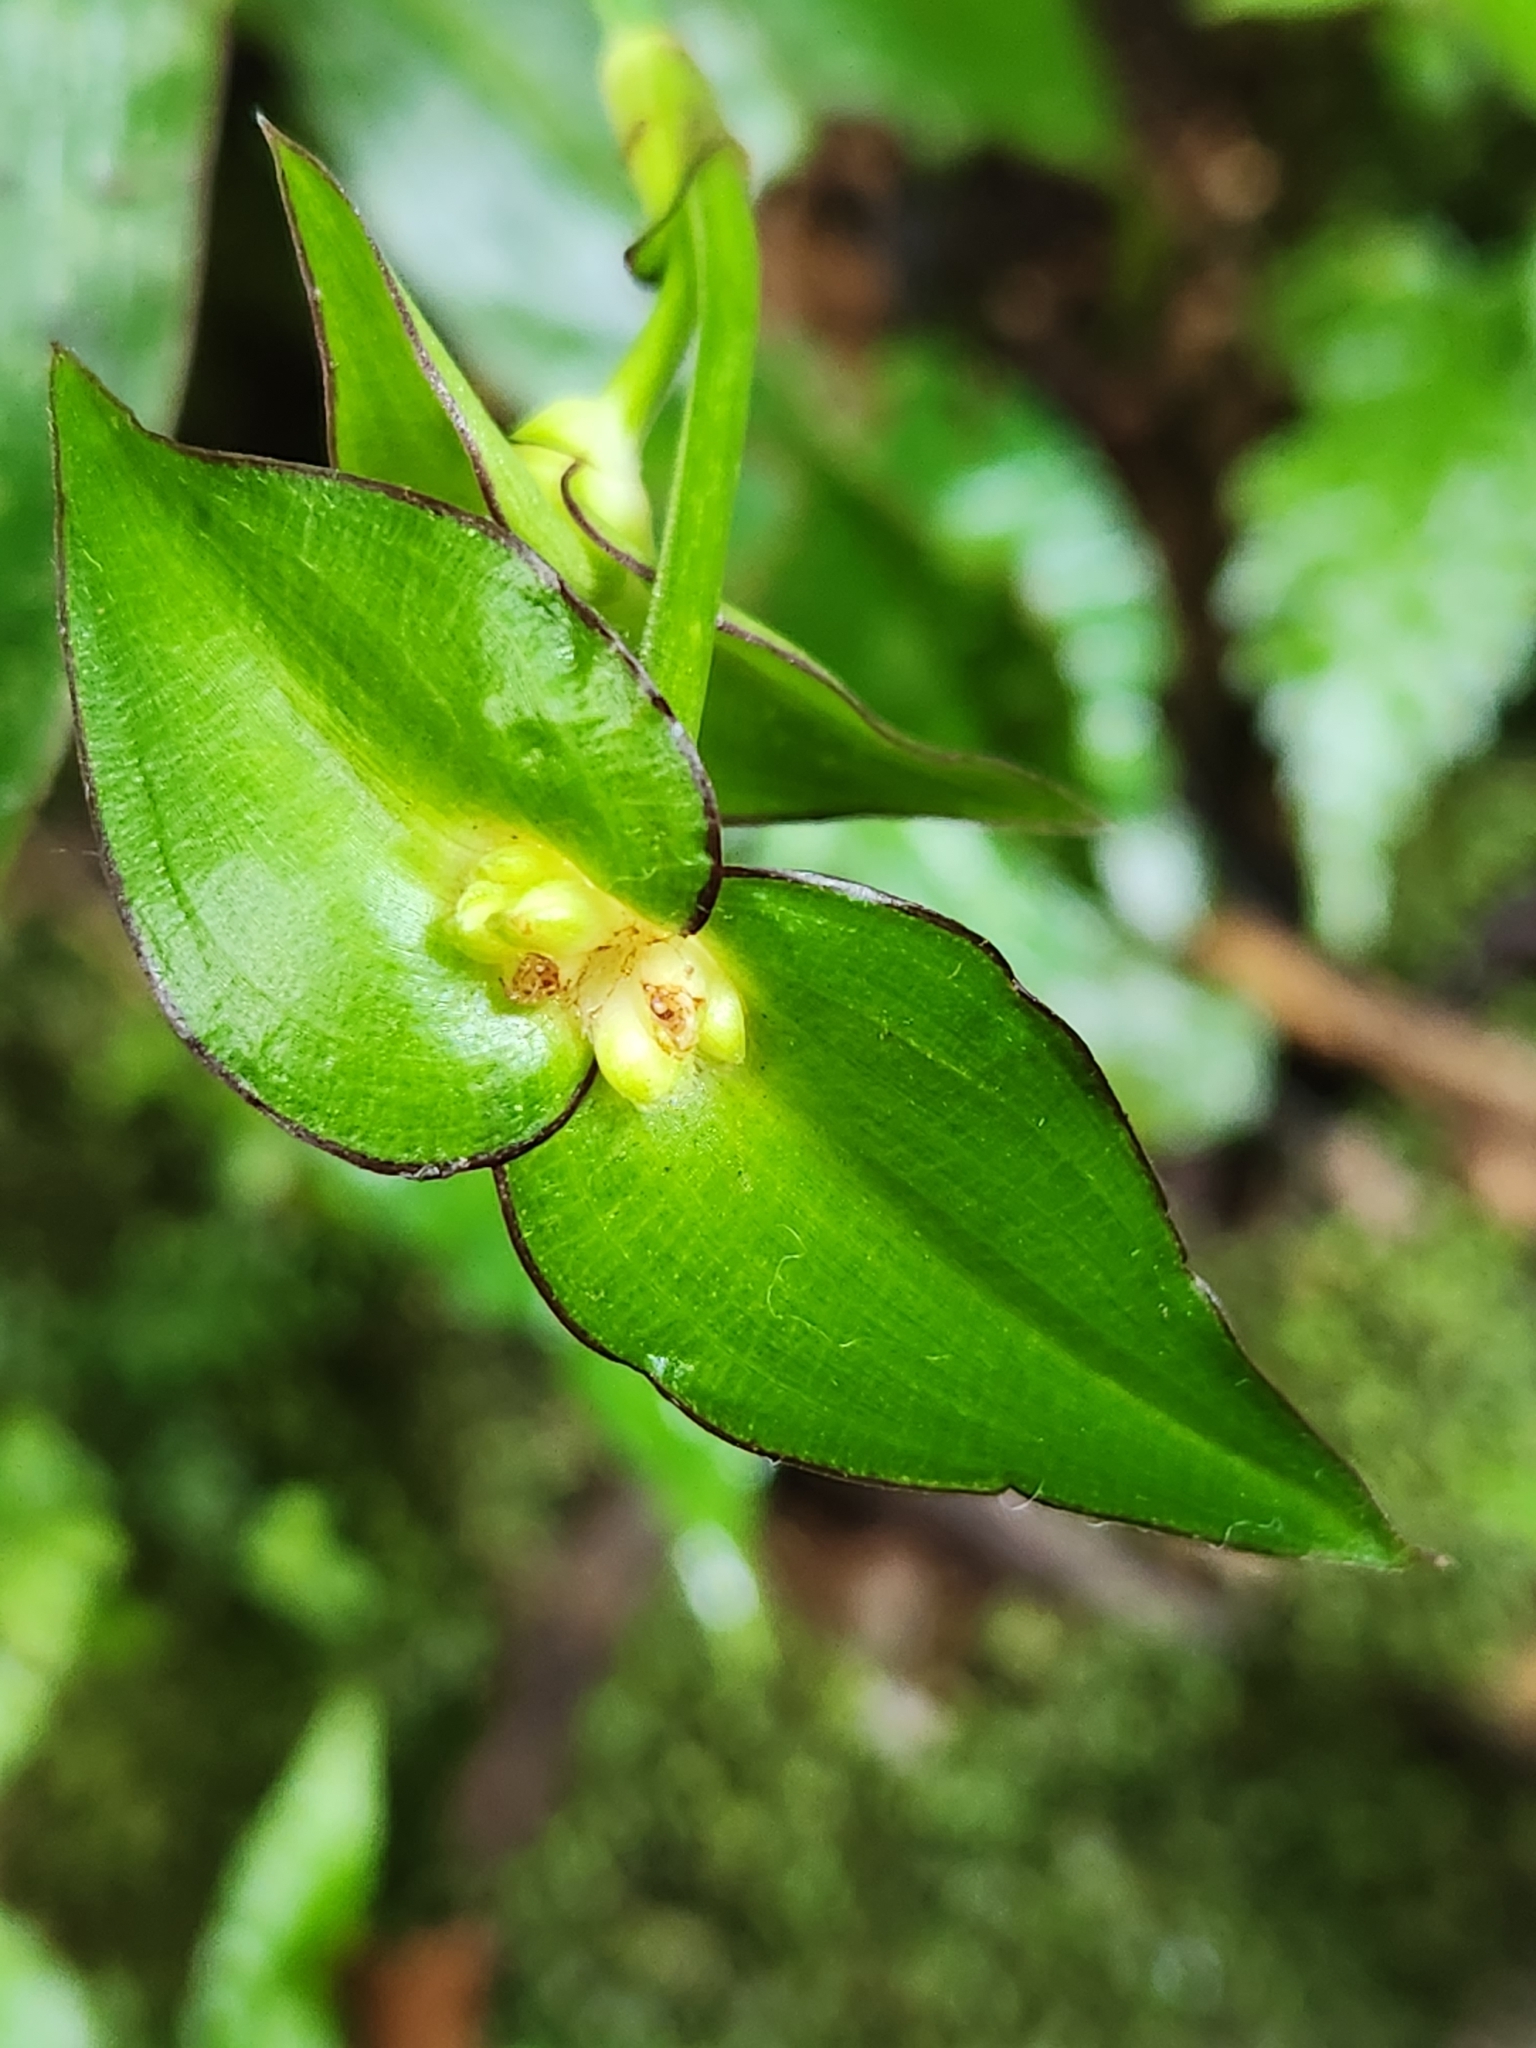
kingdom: Plantae
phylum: Tracheophyta
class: Liliopsida
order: Commelinales
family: Commelinaceae
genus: Tradescantia
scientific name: Tradescantia zanonia
